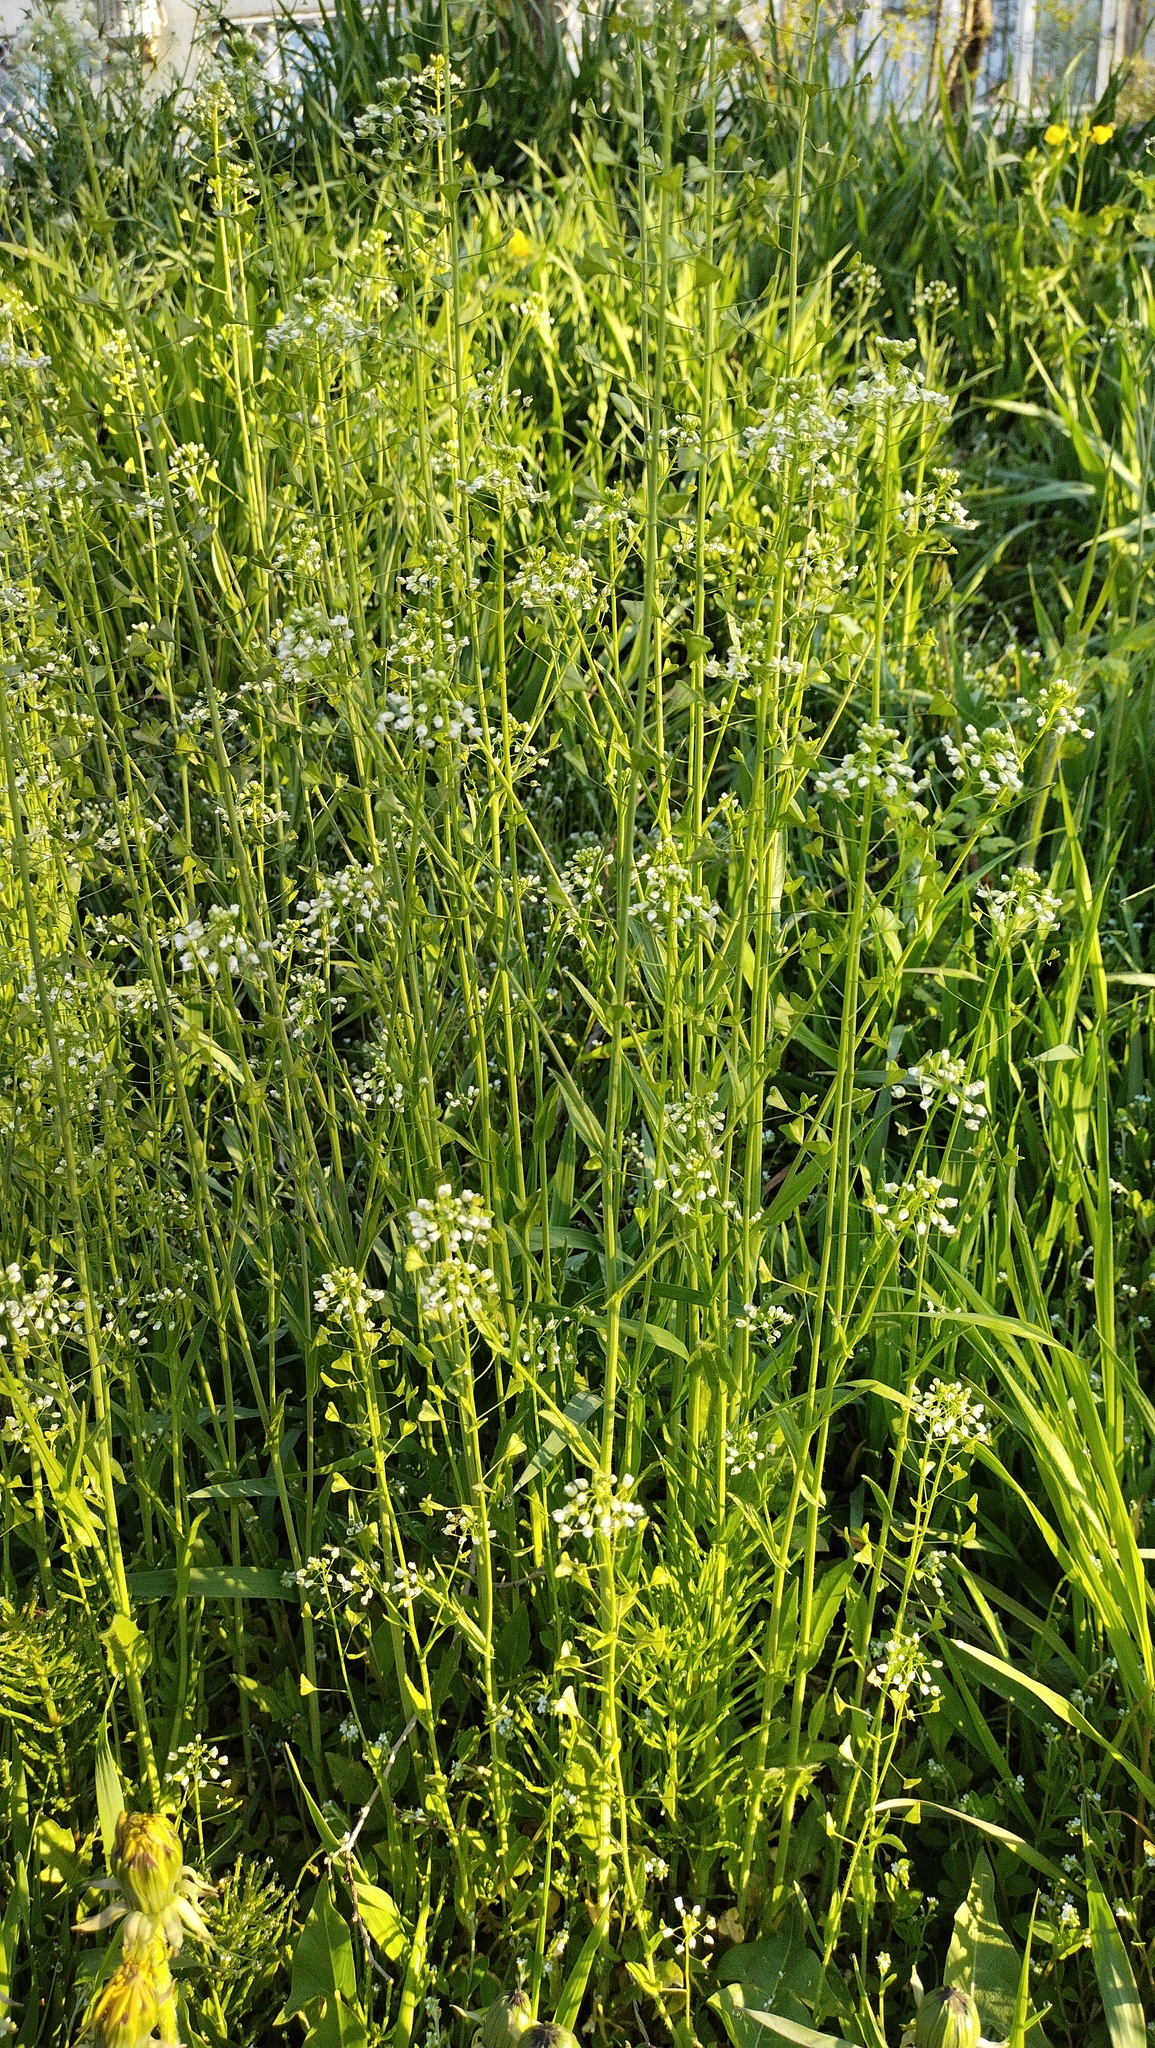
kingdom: Plantae
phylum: Tracheophyta
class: Magnoliopsida
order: Brassicales
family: Brassicaceae
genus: Capsella
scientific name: Capsella bursa-pastoris
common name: Shepherd's purse
